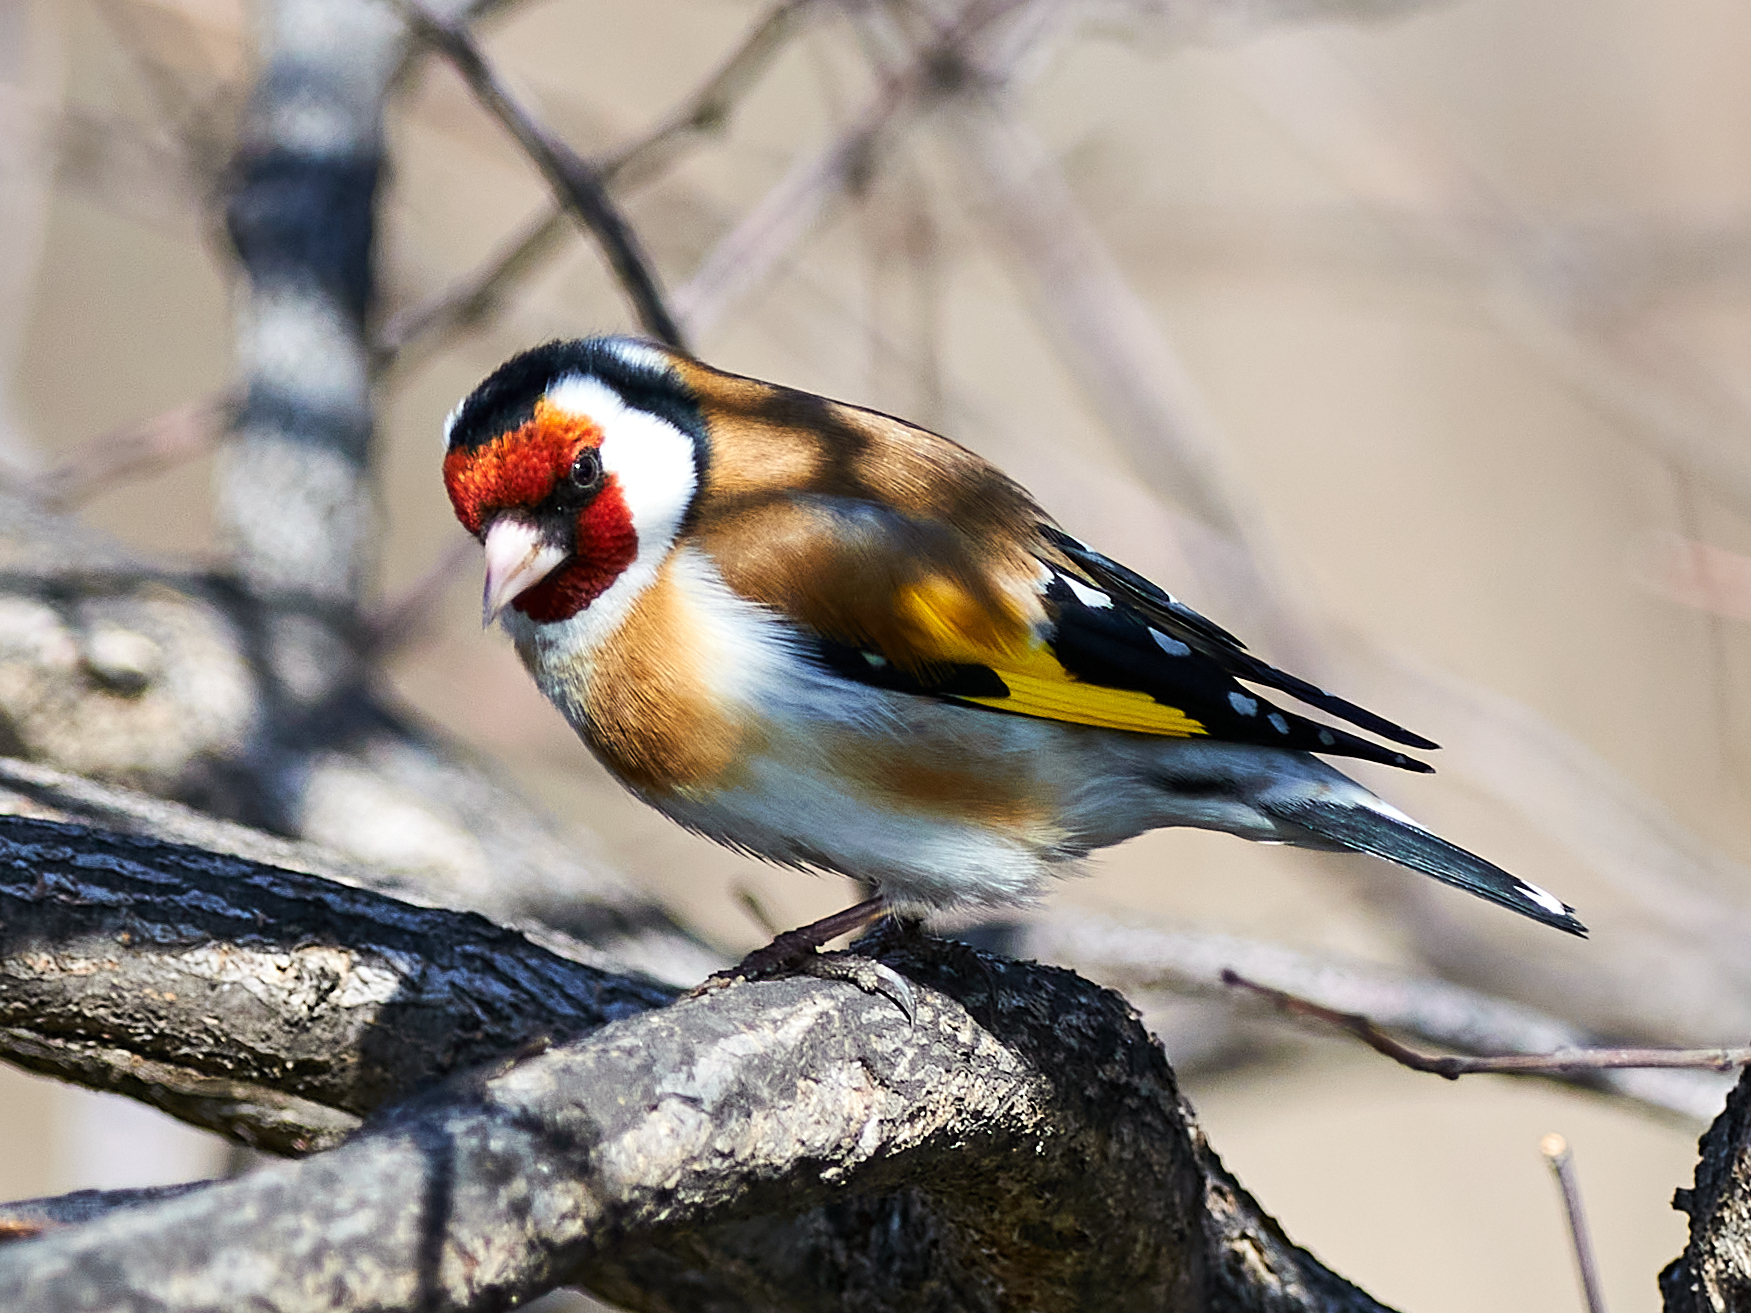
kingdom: Animalia
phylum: Chordata
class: Aves
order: Passeriformes
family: Fringillidae
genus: Carduelis
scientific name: Carduelis carduelis
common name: European goldfinch
